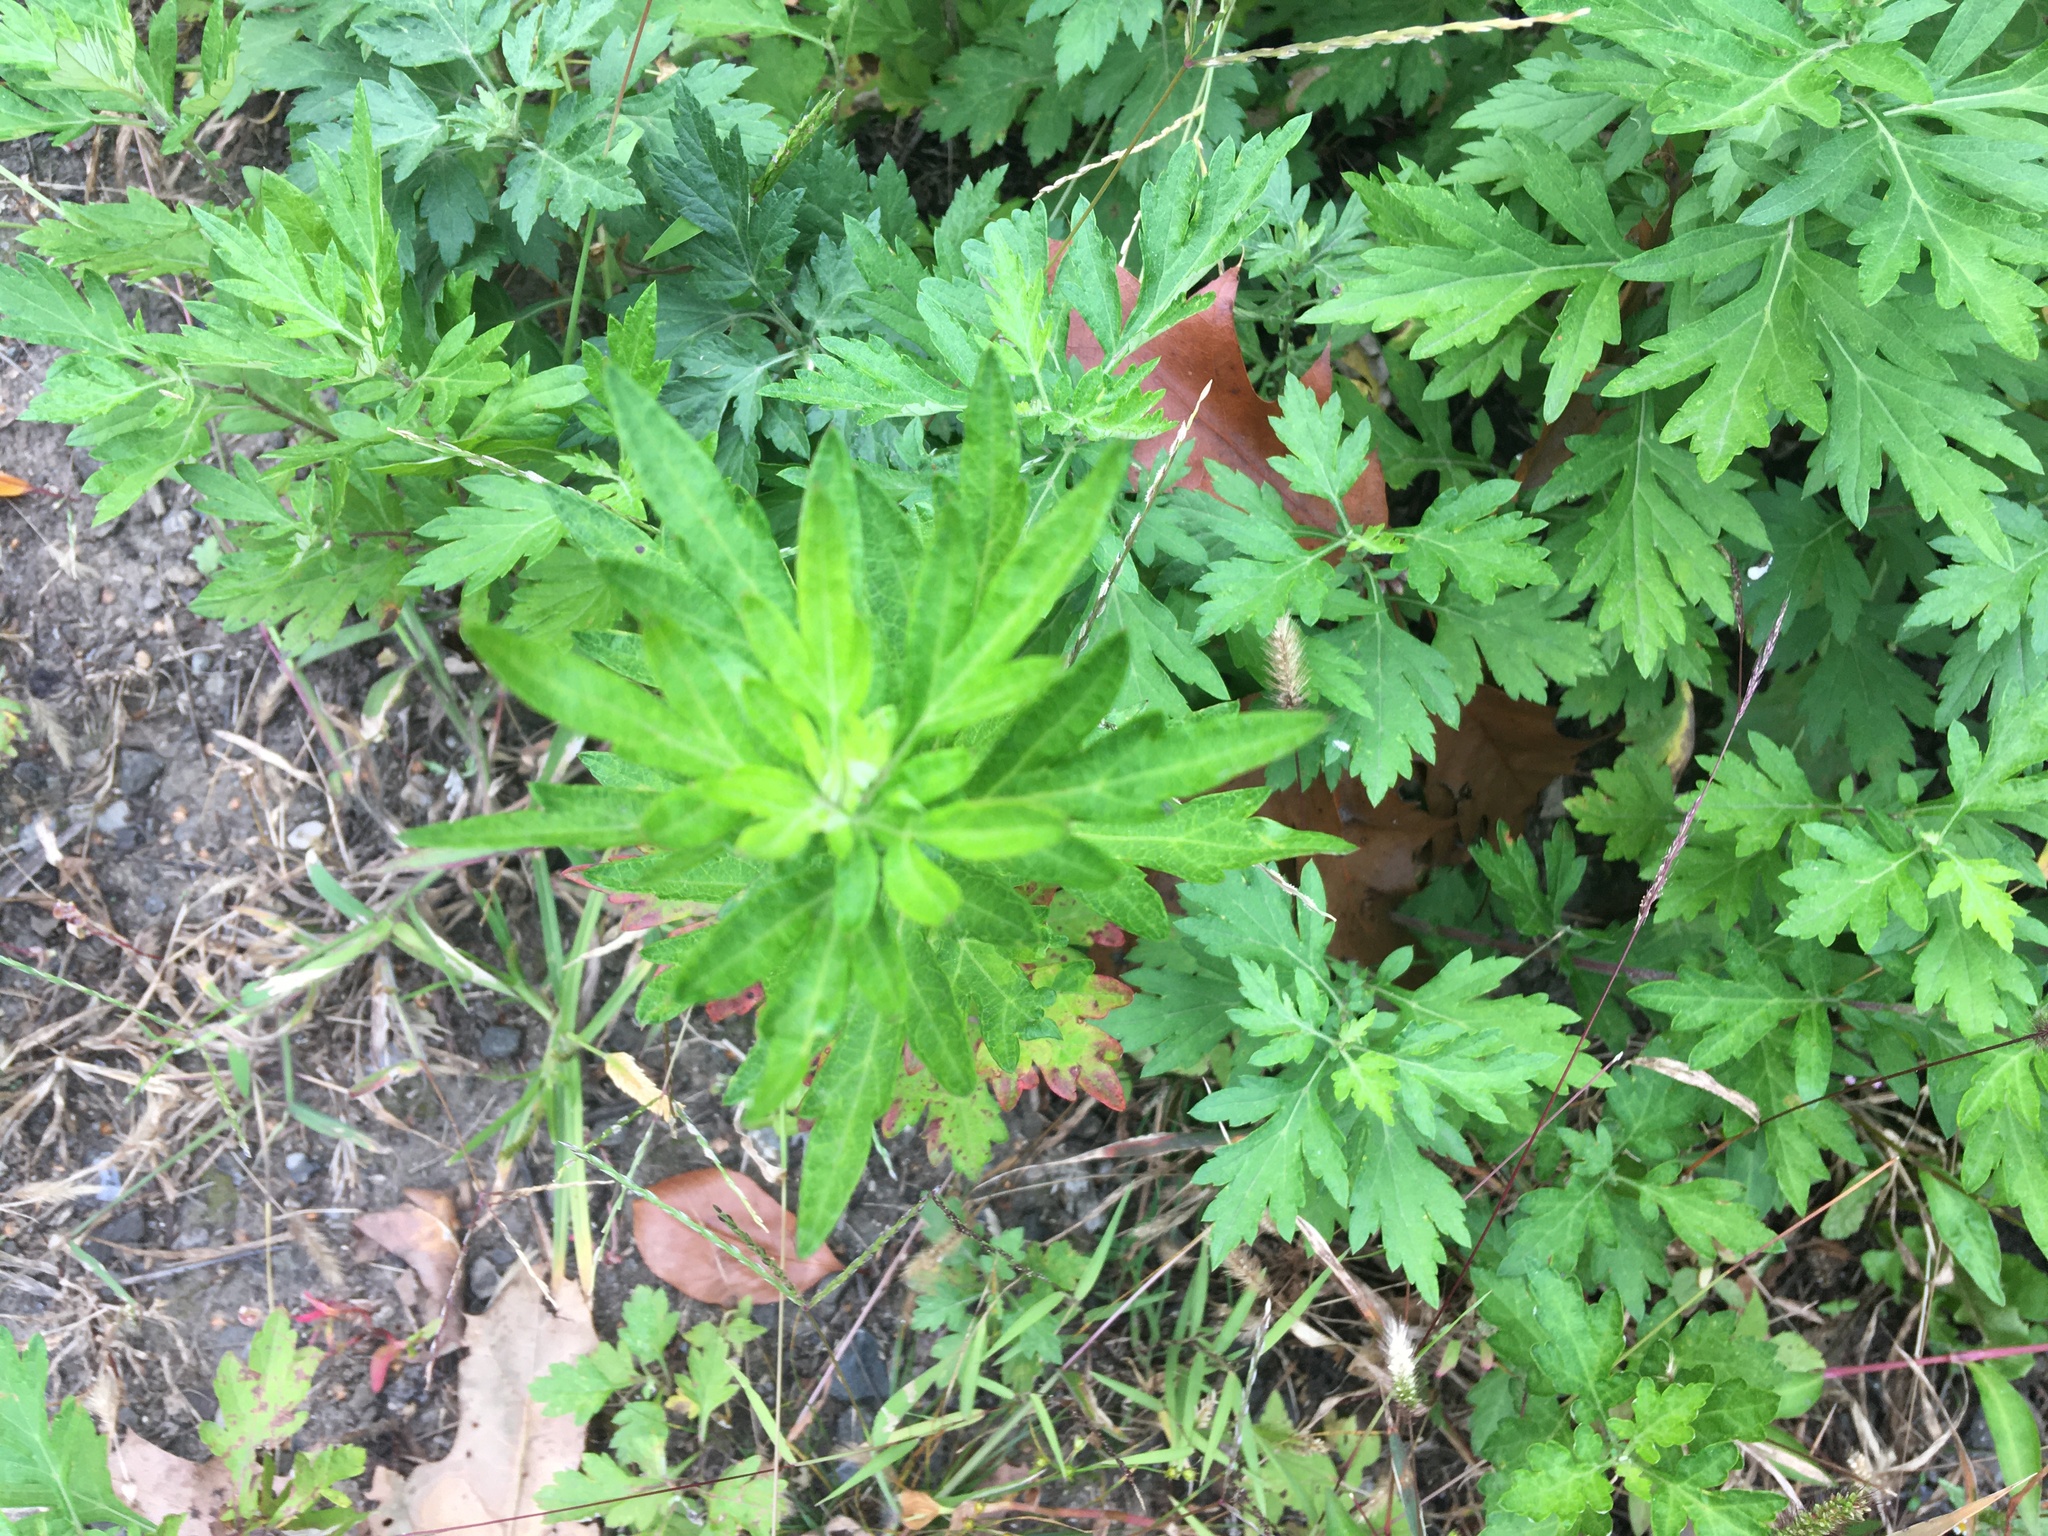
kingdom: Plantae
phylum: Tracheophyta
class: Magnoliopsida
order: Asterales
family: Asteraceae
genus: Artemisia
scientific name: Artemisia vulgaris
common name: Mugwort
